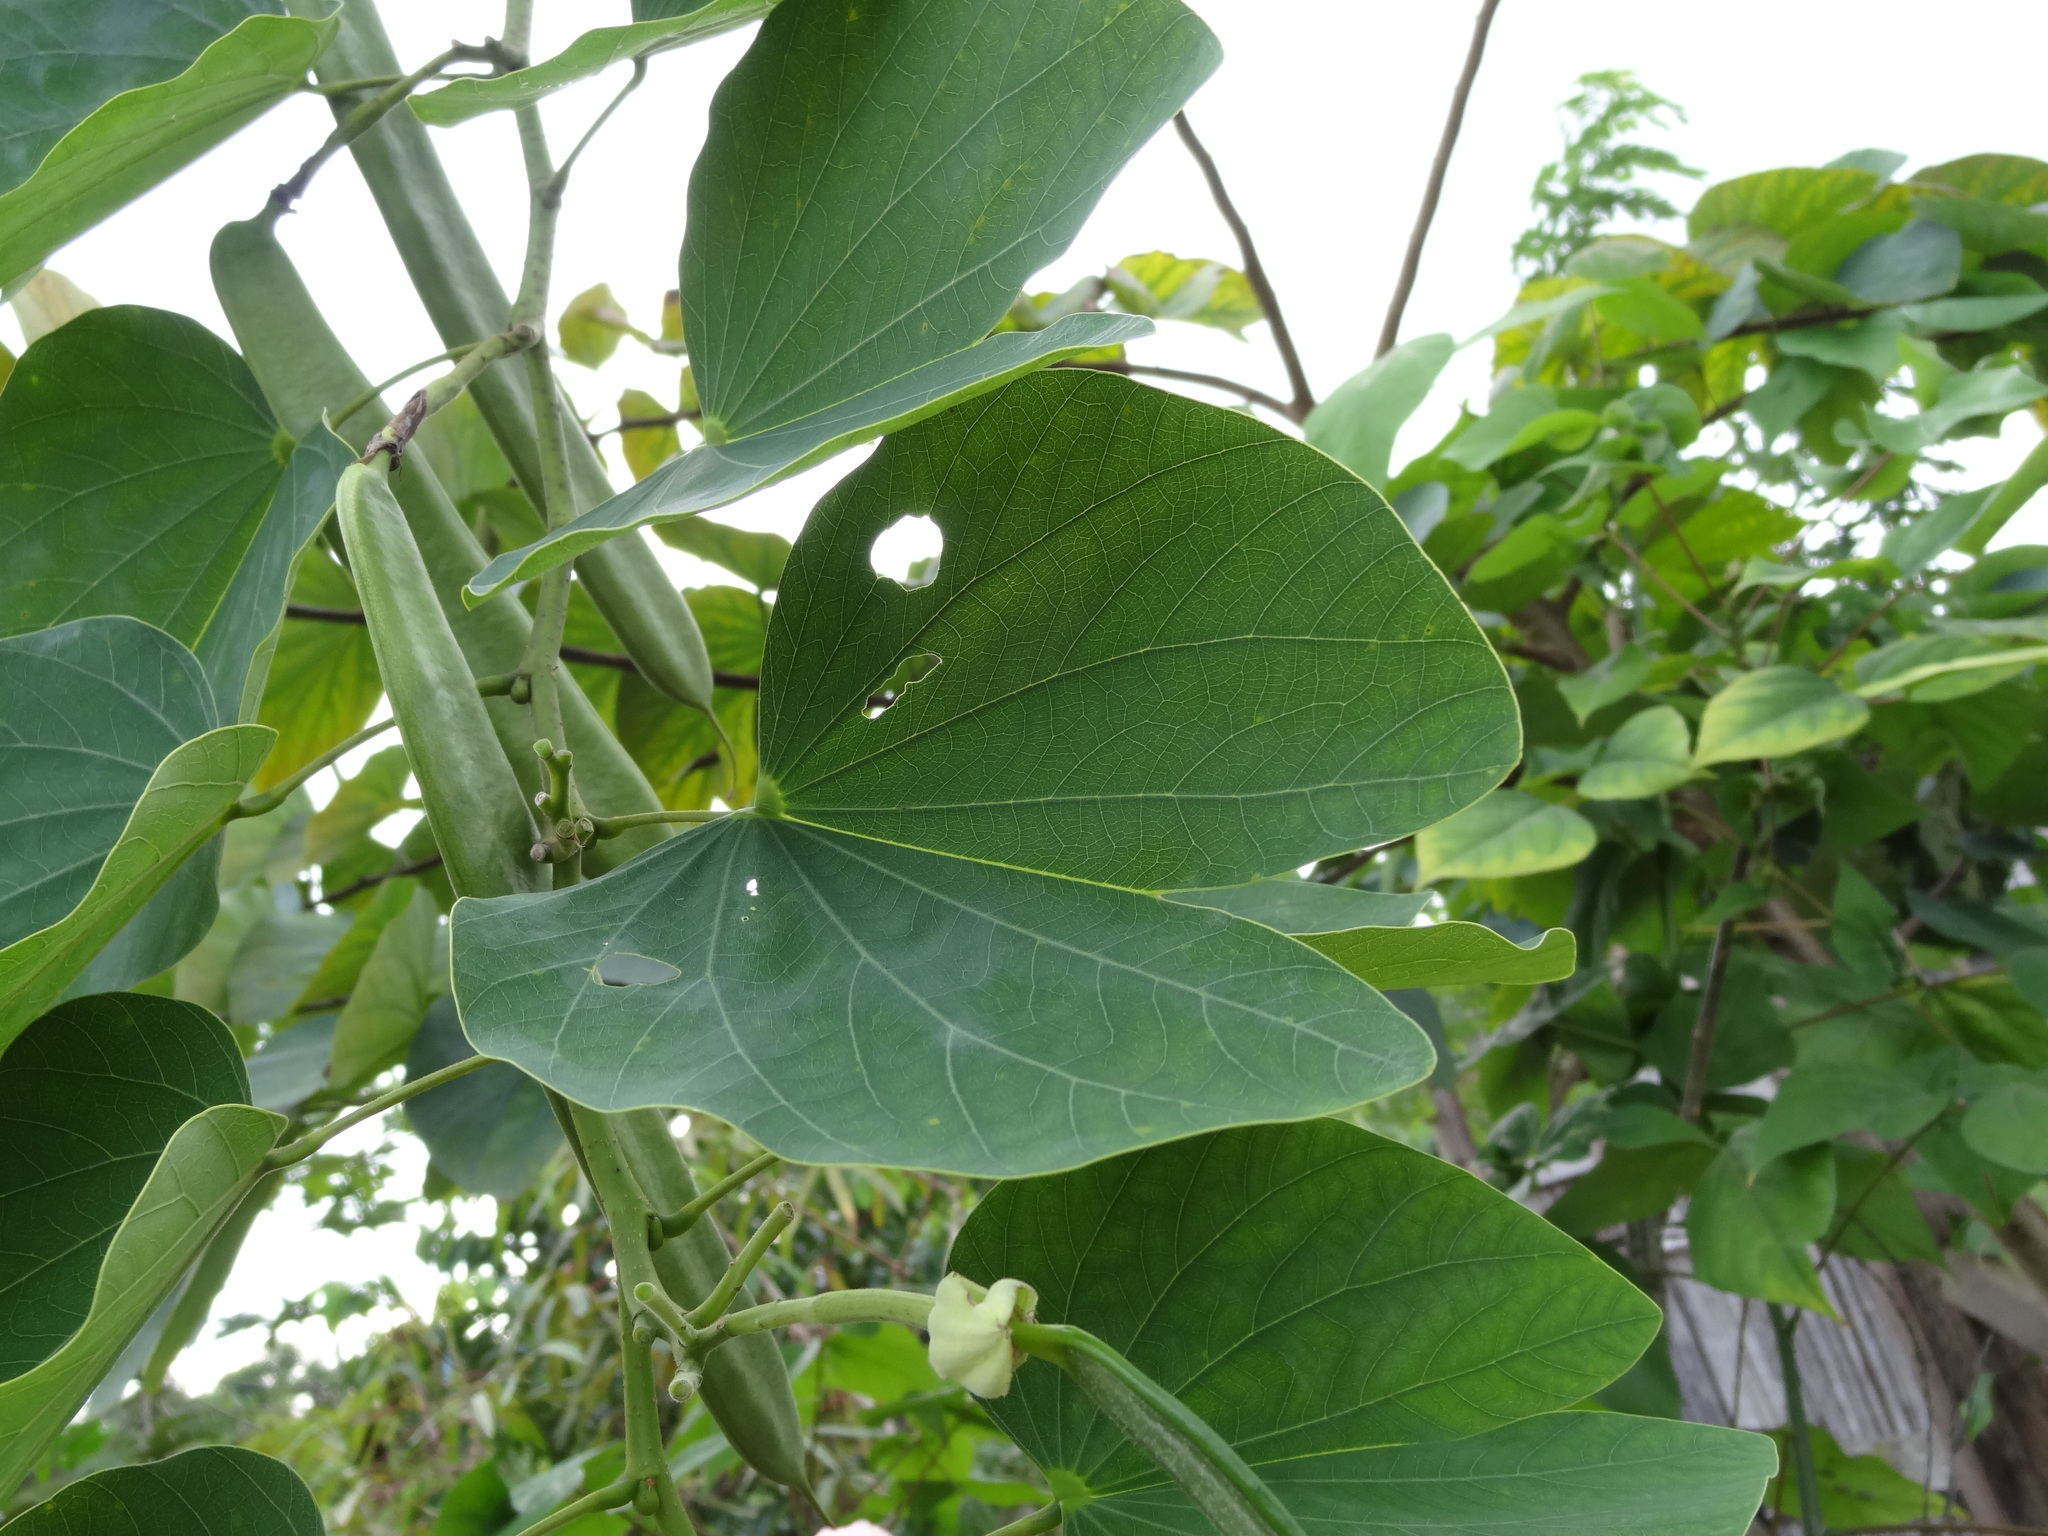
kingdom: Plantae
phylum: Tracheophyta
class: Magnoliopsida
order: Fabales
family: Fabaceae
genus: Bauhinia
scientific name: Bauhinia monandra
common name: Napoleon's plume
